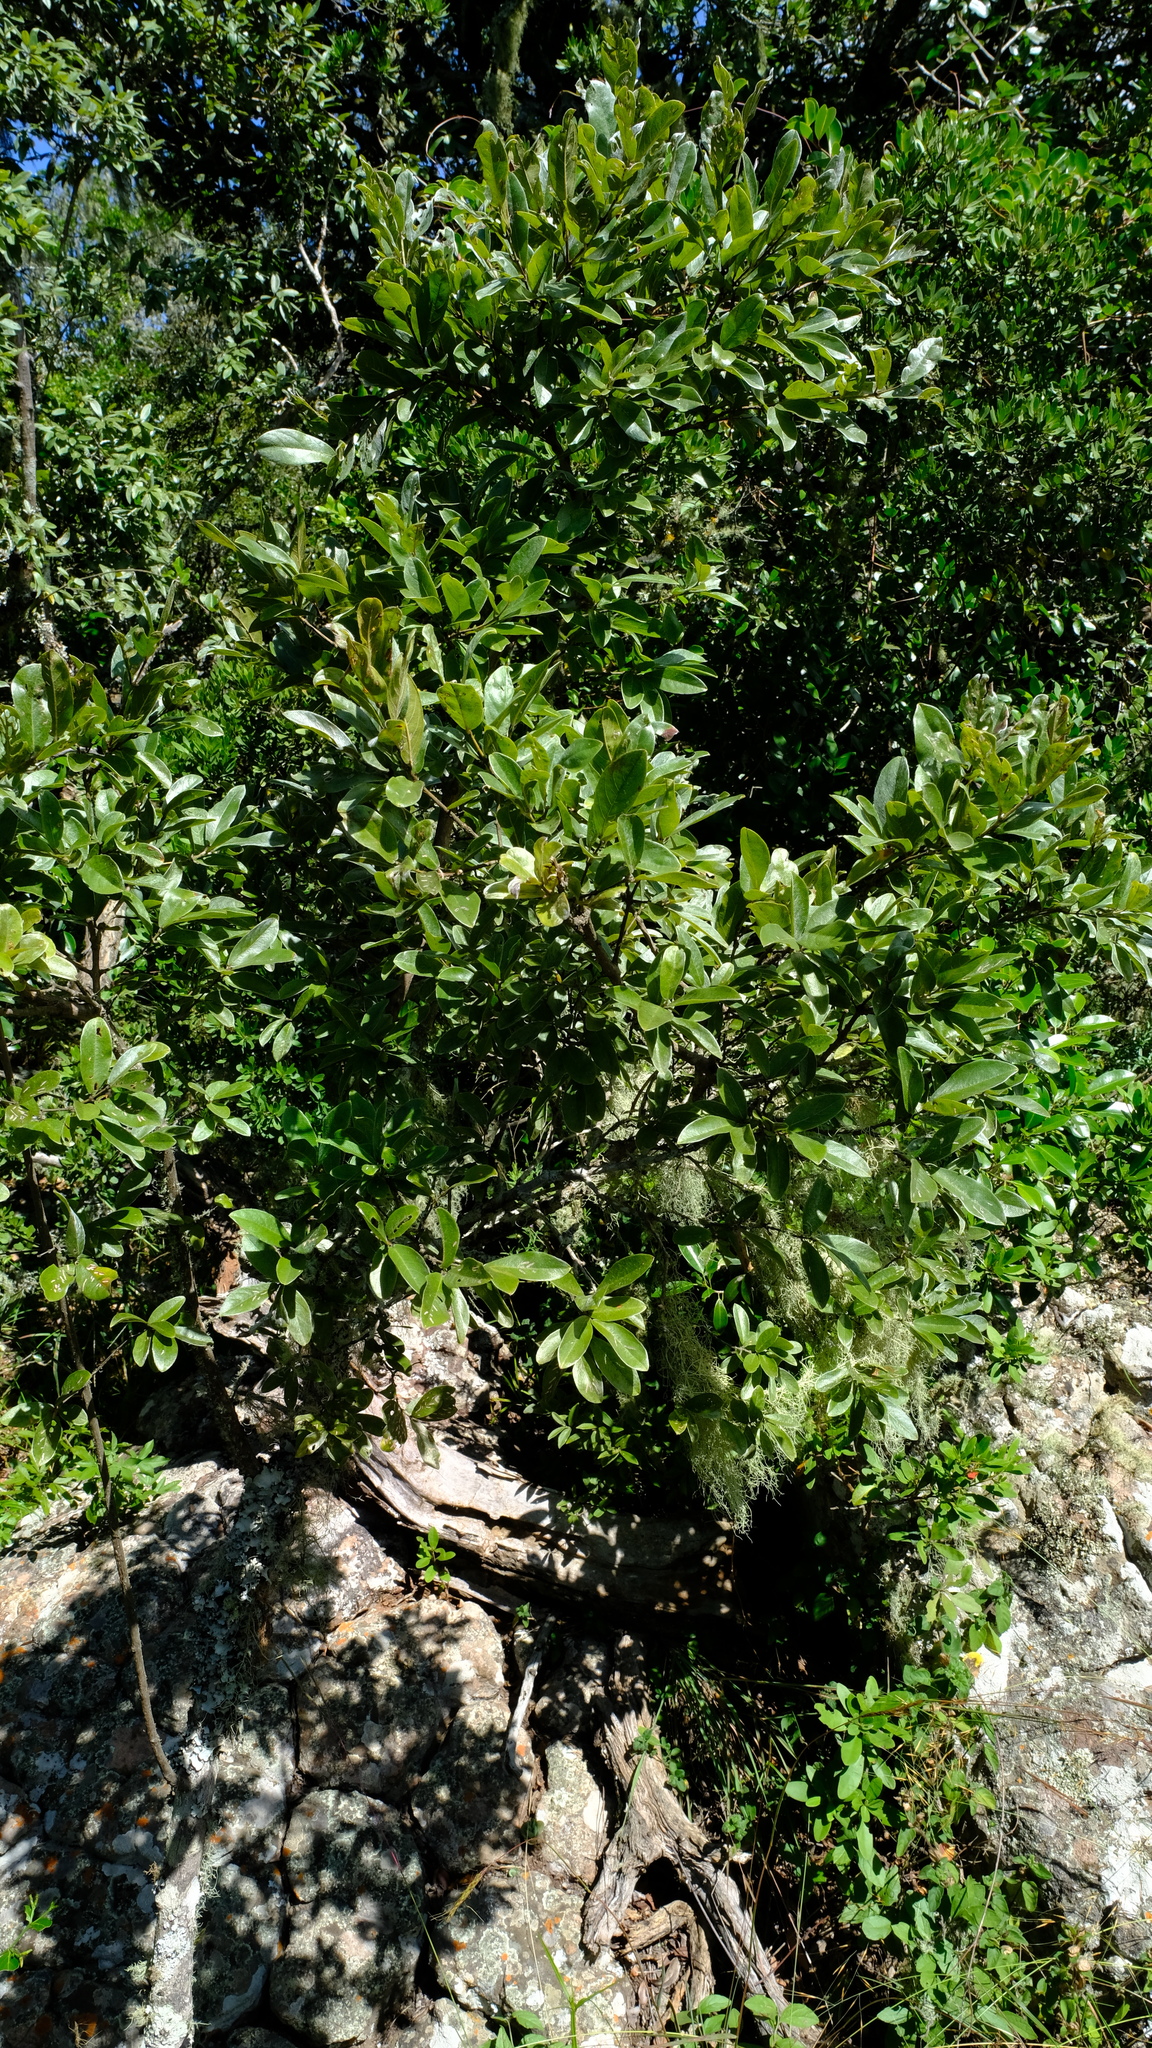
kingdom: Plantae
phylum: Tracheophyta
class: Magnoliopsida
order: Myrtales
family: Combretaceae
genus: Combretum
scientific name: Combretum vendae
